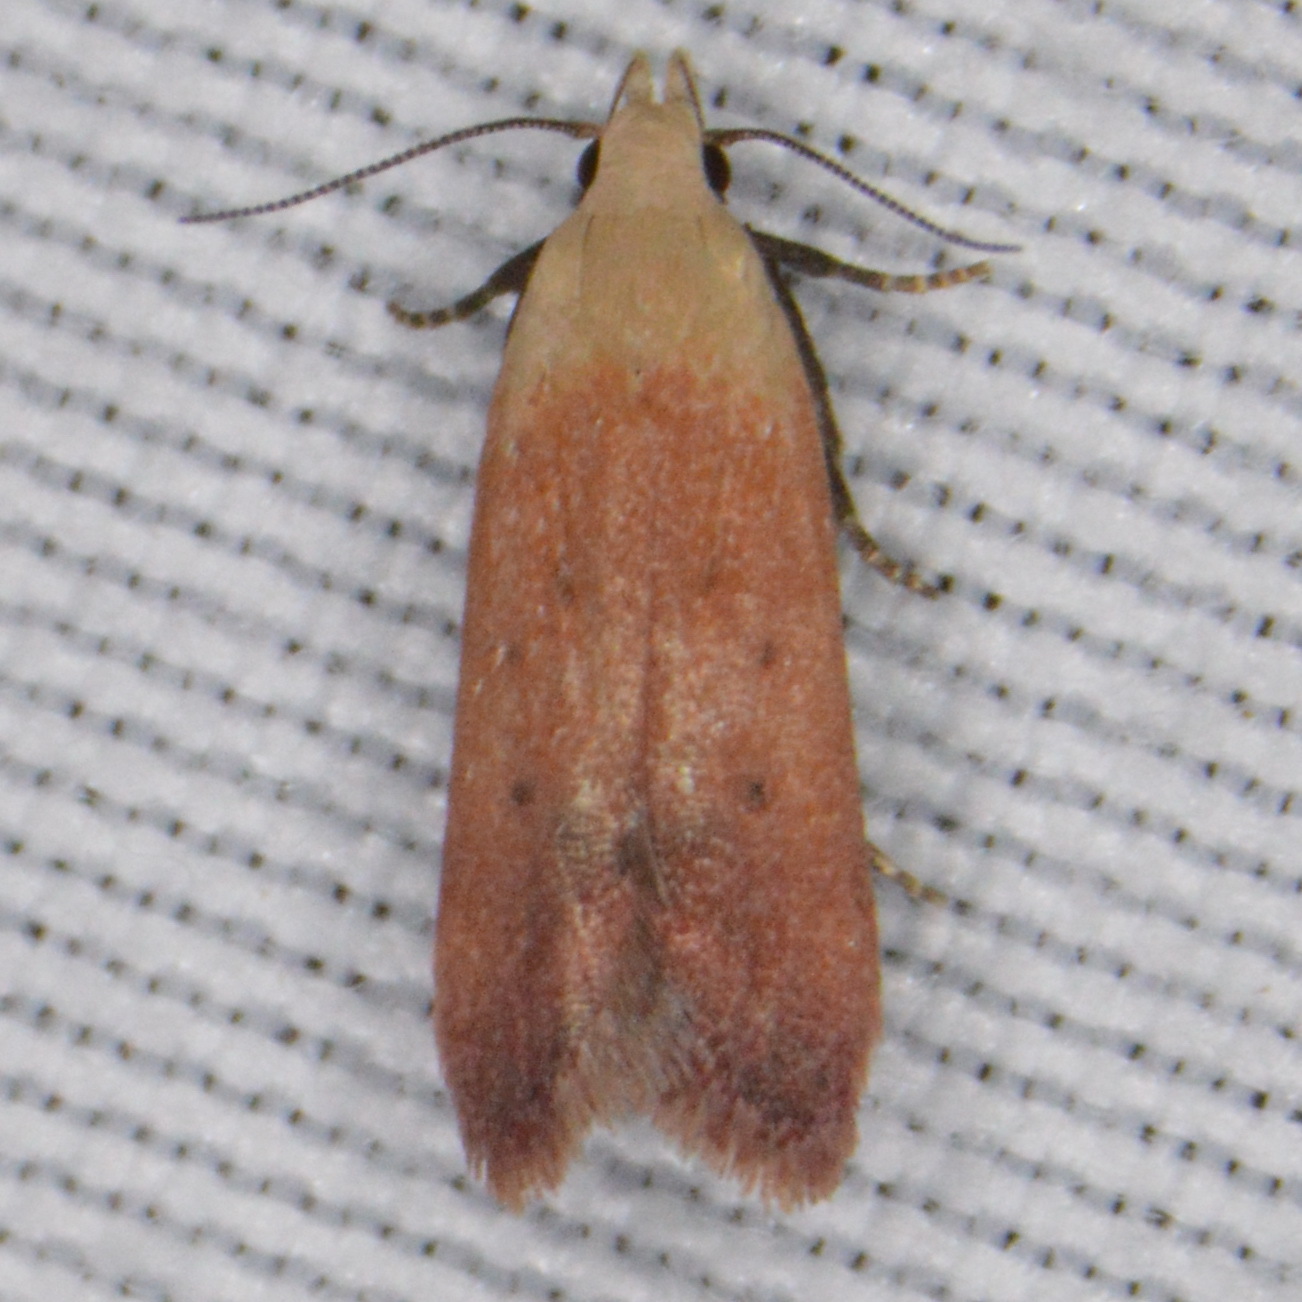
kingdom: Animalia
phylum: Arthropoda
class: Insecta
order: Lepidoptera
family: Gelechiidae
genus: Anacampsis
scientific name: Anacampsis fullonella
